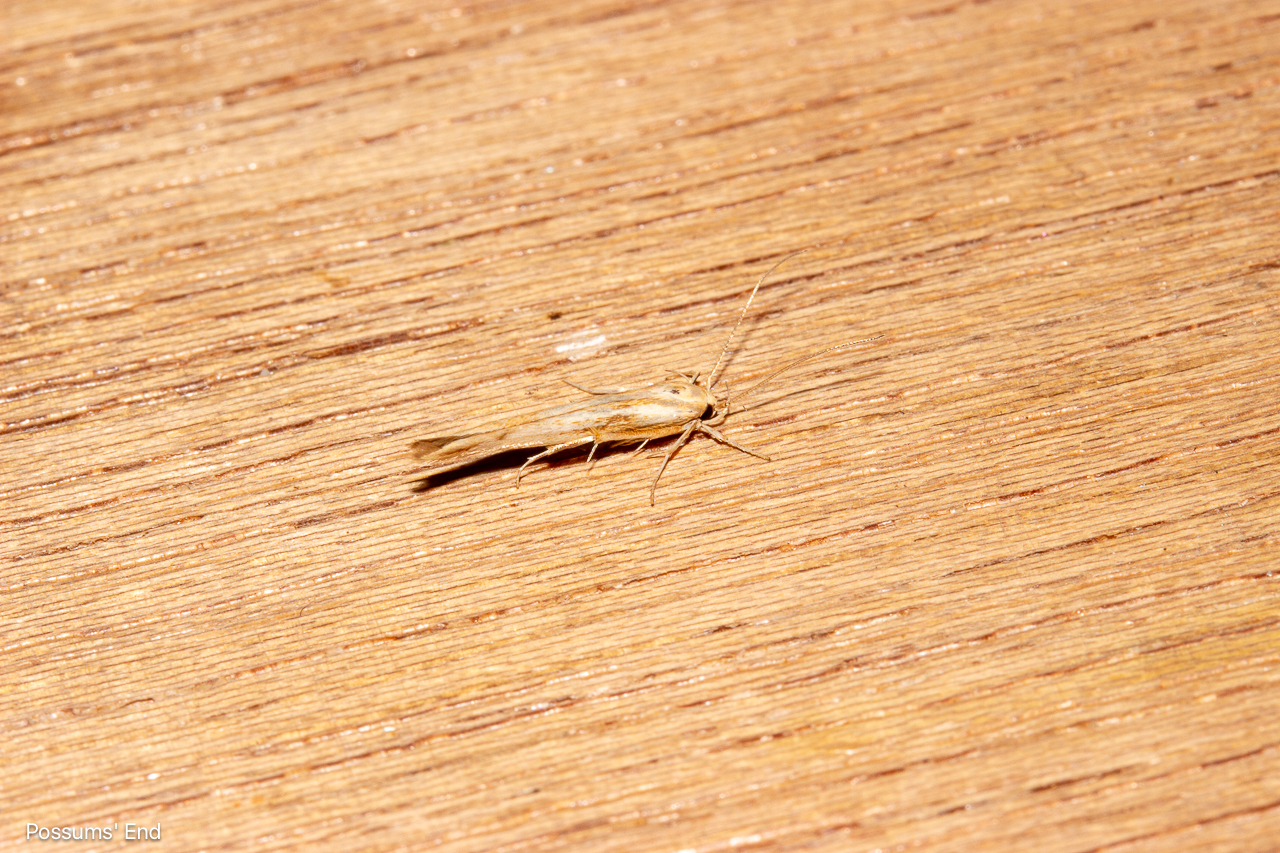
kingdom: Animalia
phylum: Arthropoda
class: Insecta
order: Lepidoptera
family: Stathmopodidae
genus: Stathmopoda
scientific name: Stathmopoda aposema
